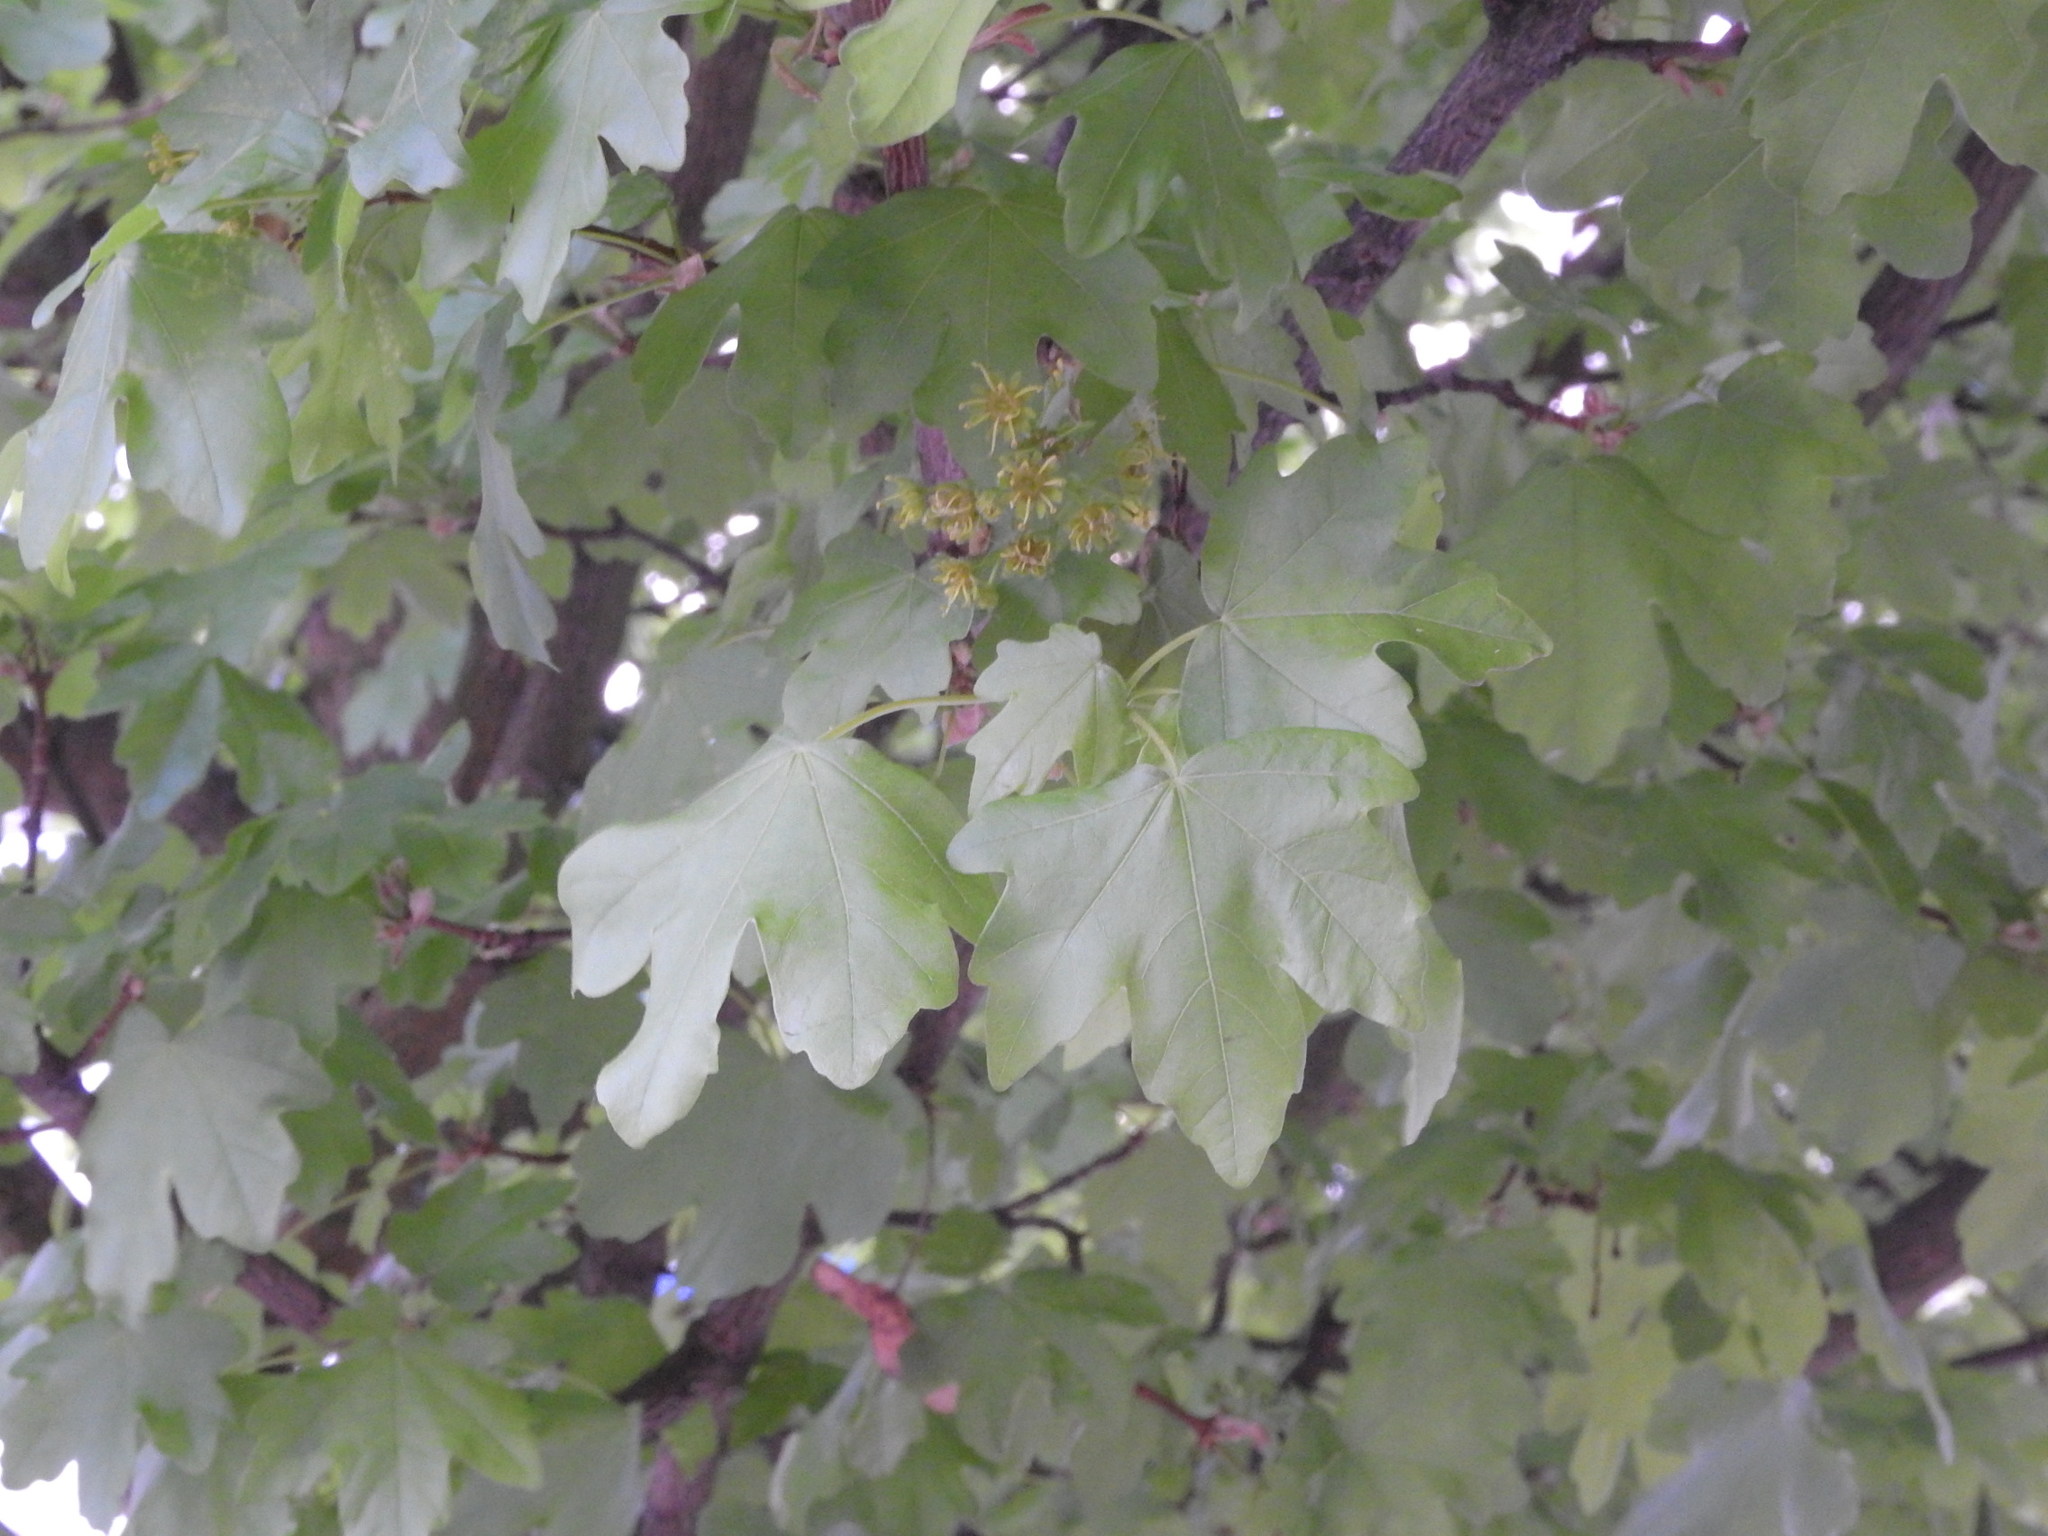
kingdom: Plantae
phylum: Tracheophyta
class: Magnoliopsida
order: Sapindales
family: Sapindaceae
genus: Acer
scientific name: Acer campestre
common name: Field maple
